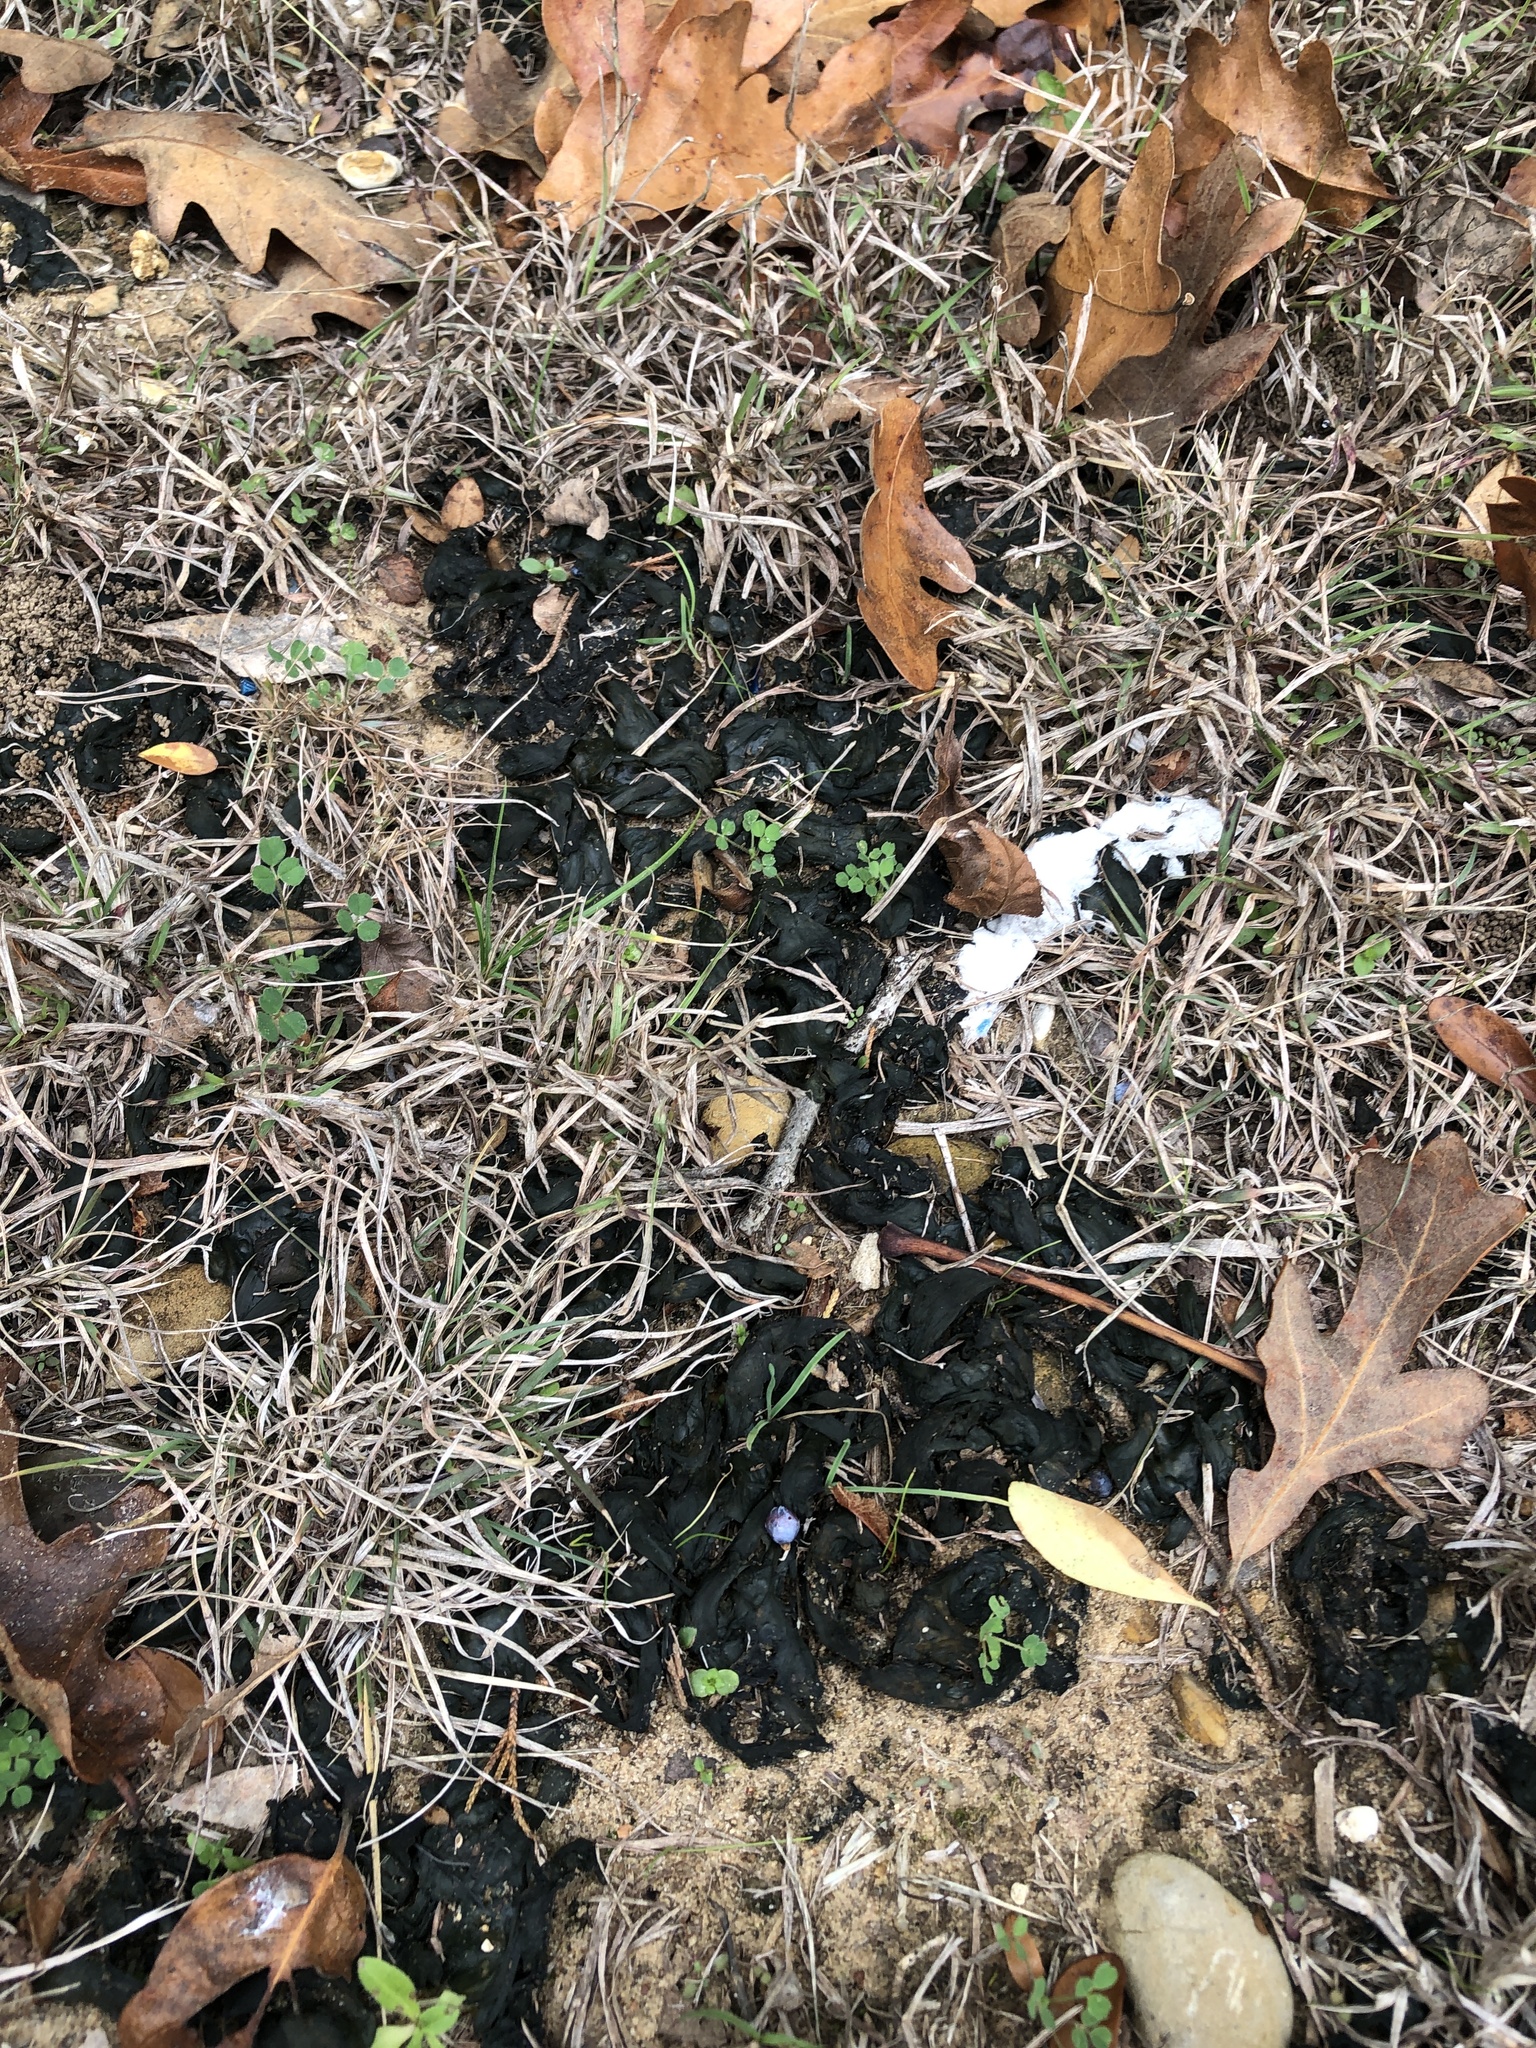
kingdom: Bacteria
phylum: Cyanobacteria
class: Cyanobacteriia
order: Cyanobacteriales
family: Nostocaceae
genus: Nostoc
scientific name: Nostoc commune
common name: Star jelly
